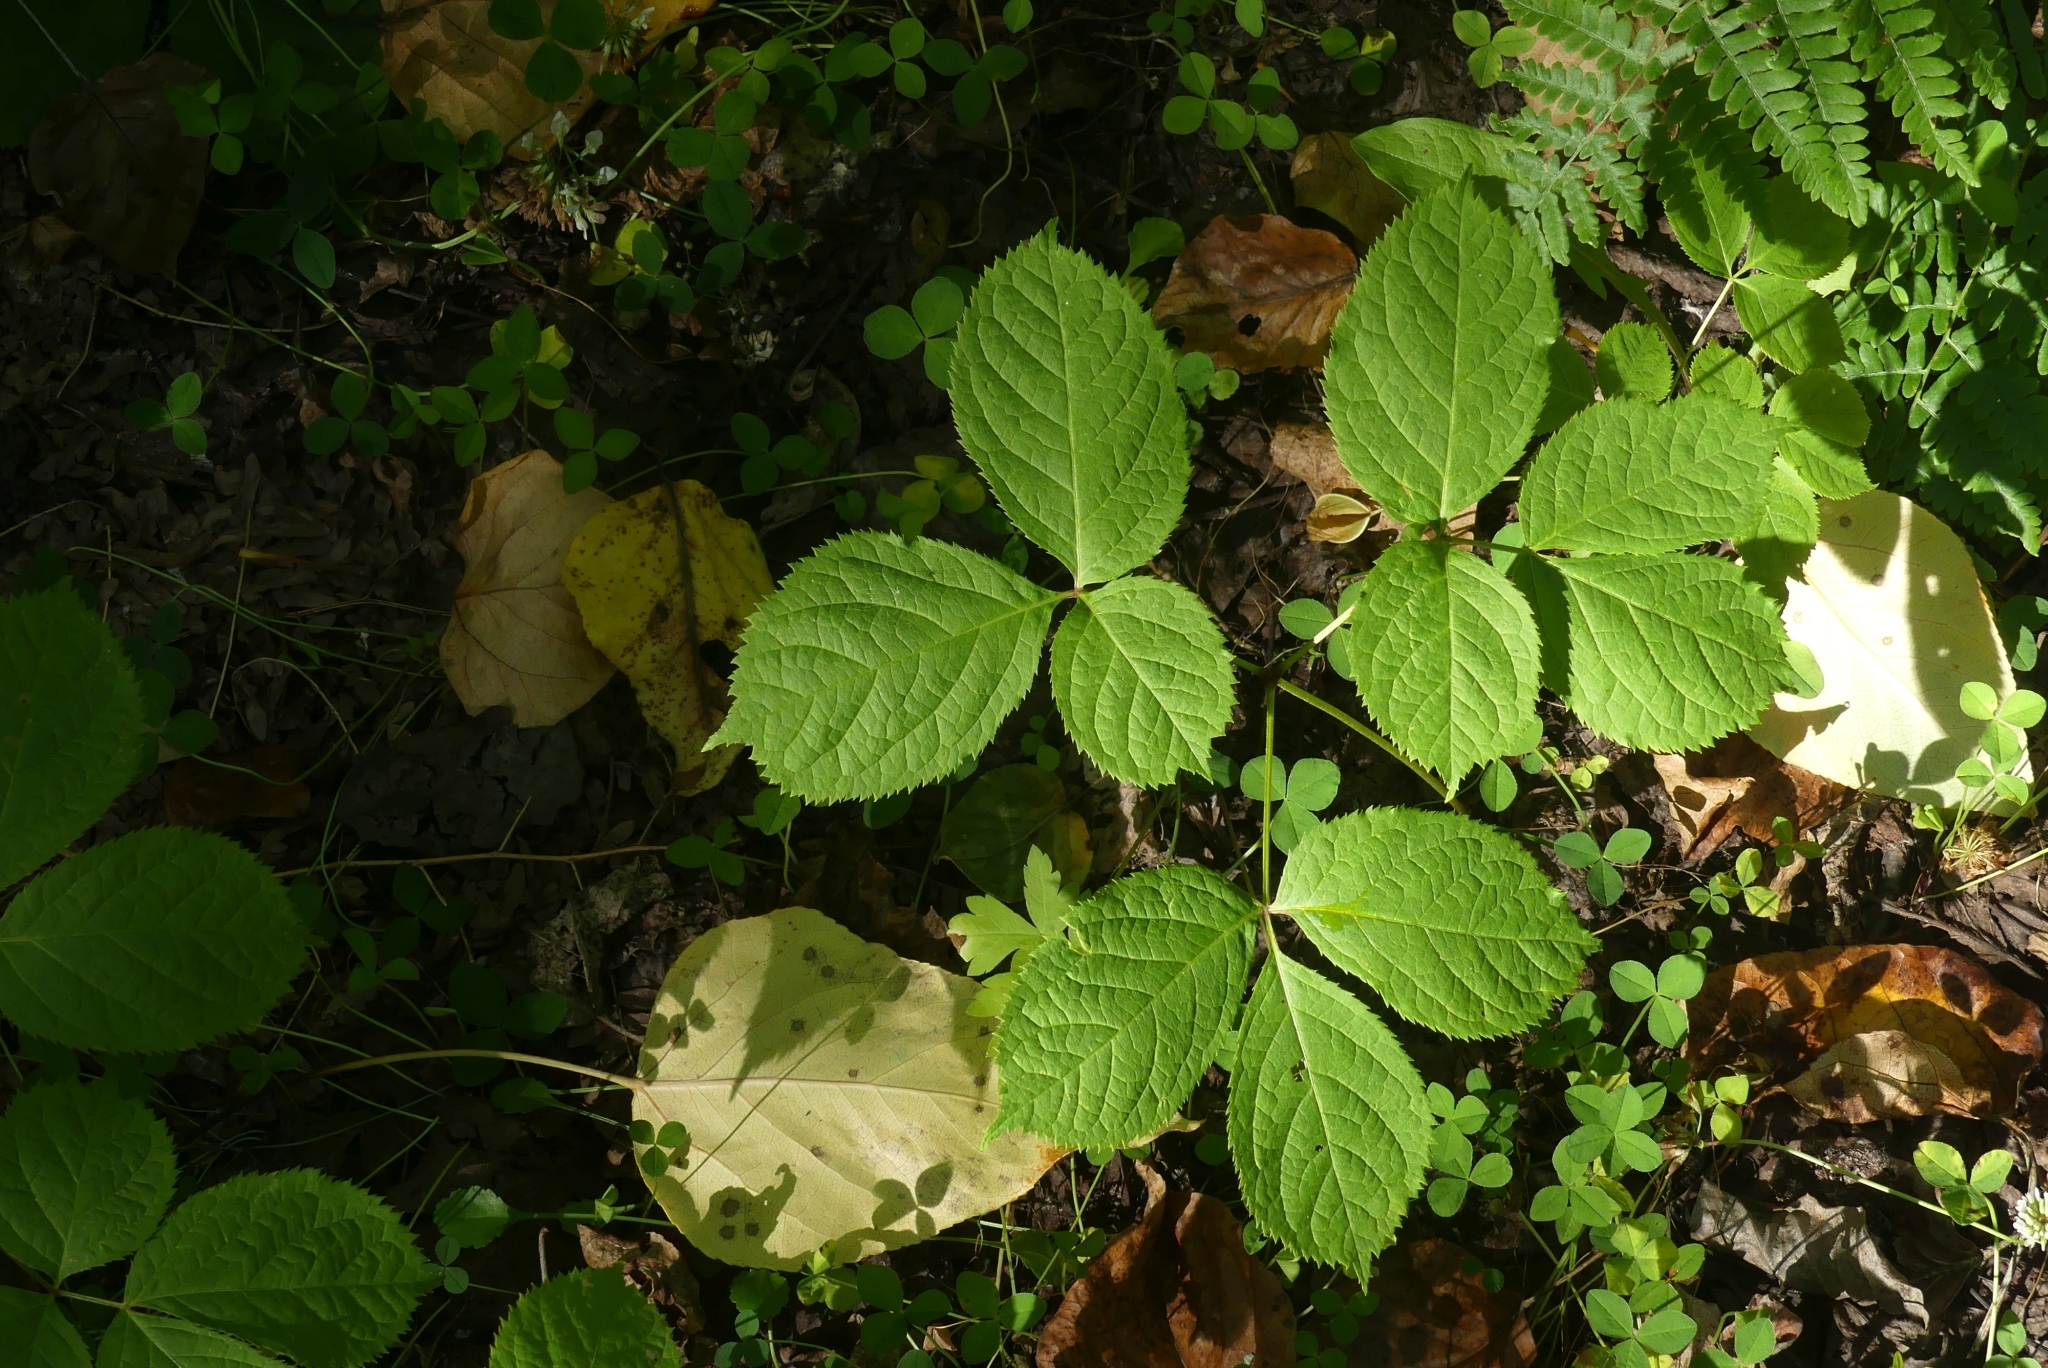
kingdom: Plantae
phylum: Tracheophyta
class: Magnoliopsida
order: Apiales
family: Araliaceae
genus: Aralia
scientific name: Aralia nudicaulis
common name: Wild sarsaparilla
